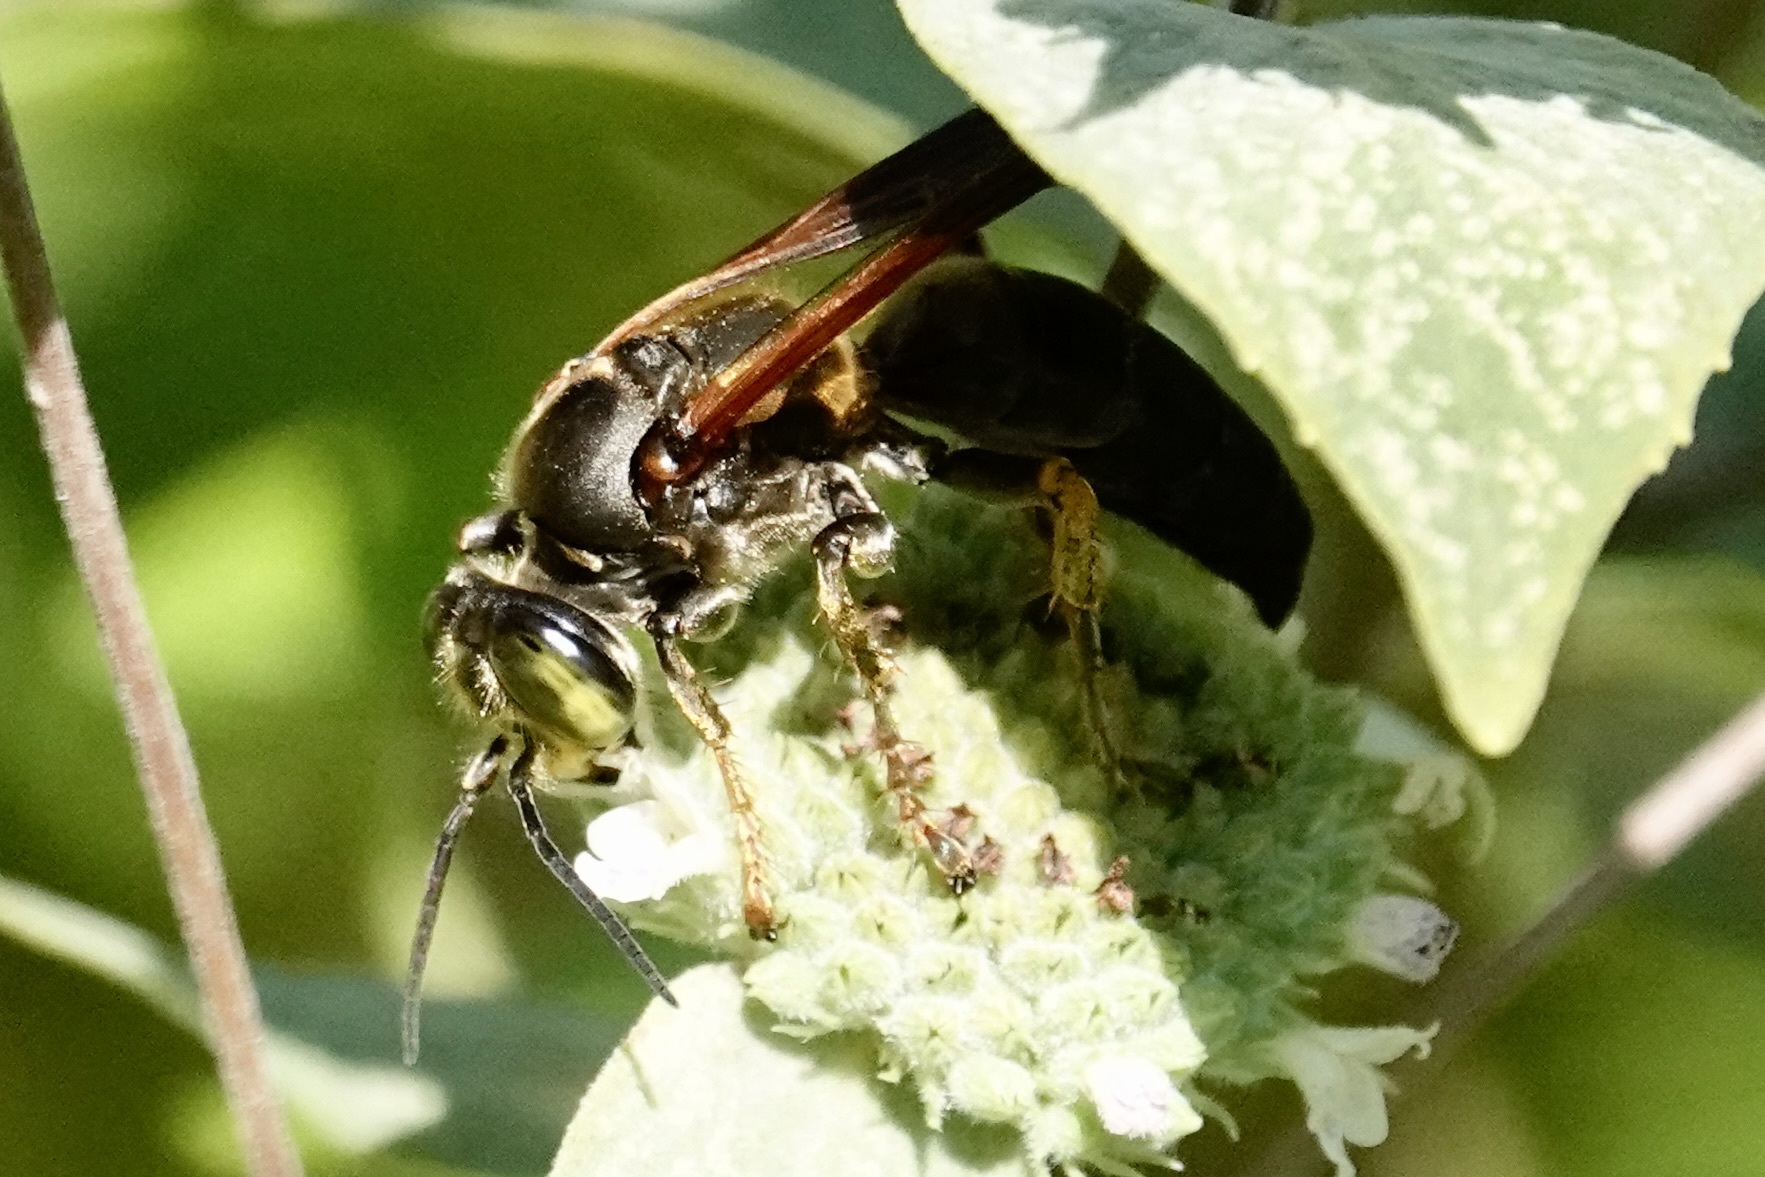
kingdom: Animalia
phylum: Arthropoda
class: Insecta
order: Hymenoptera
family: Crabronidae
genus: Tachytes
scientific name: Tachytes guatemalensis
